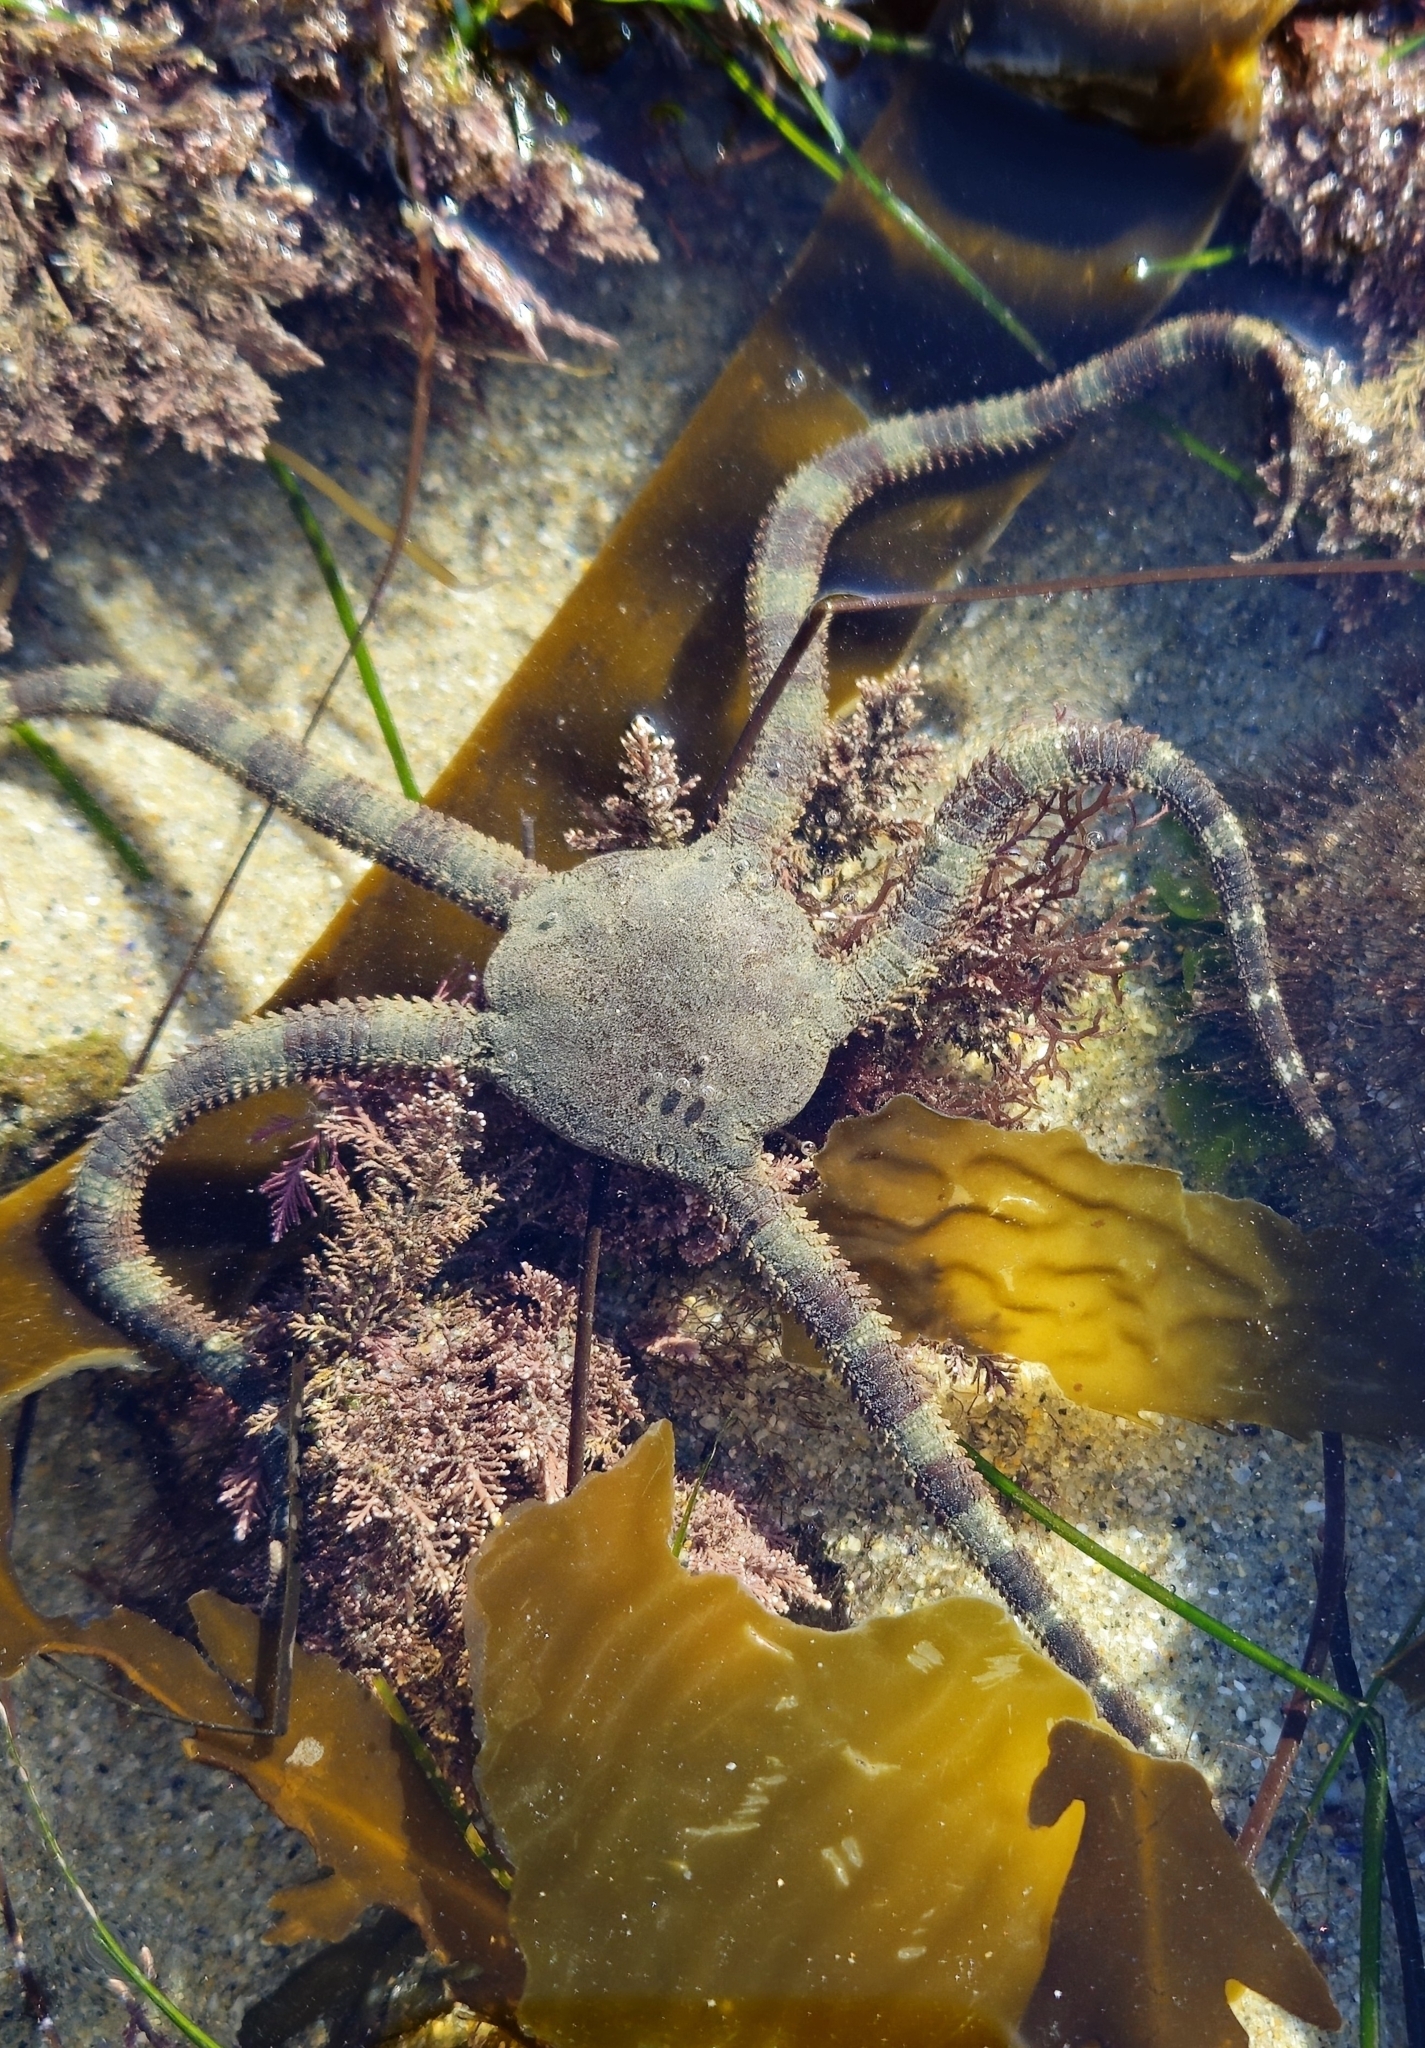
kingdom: Animalia
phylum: Echinodermata
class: Ophiuroidea
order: Ophiacanthida
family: Ophiodermatidae
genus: Ophioderma
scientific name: Ophioderma panamense
